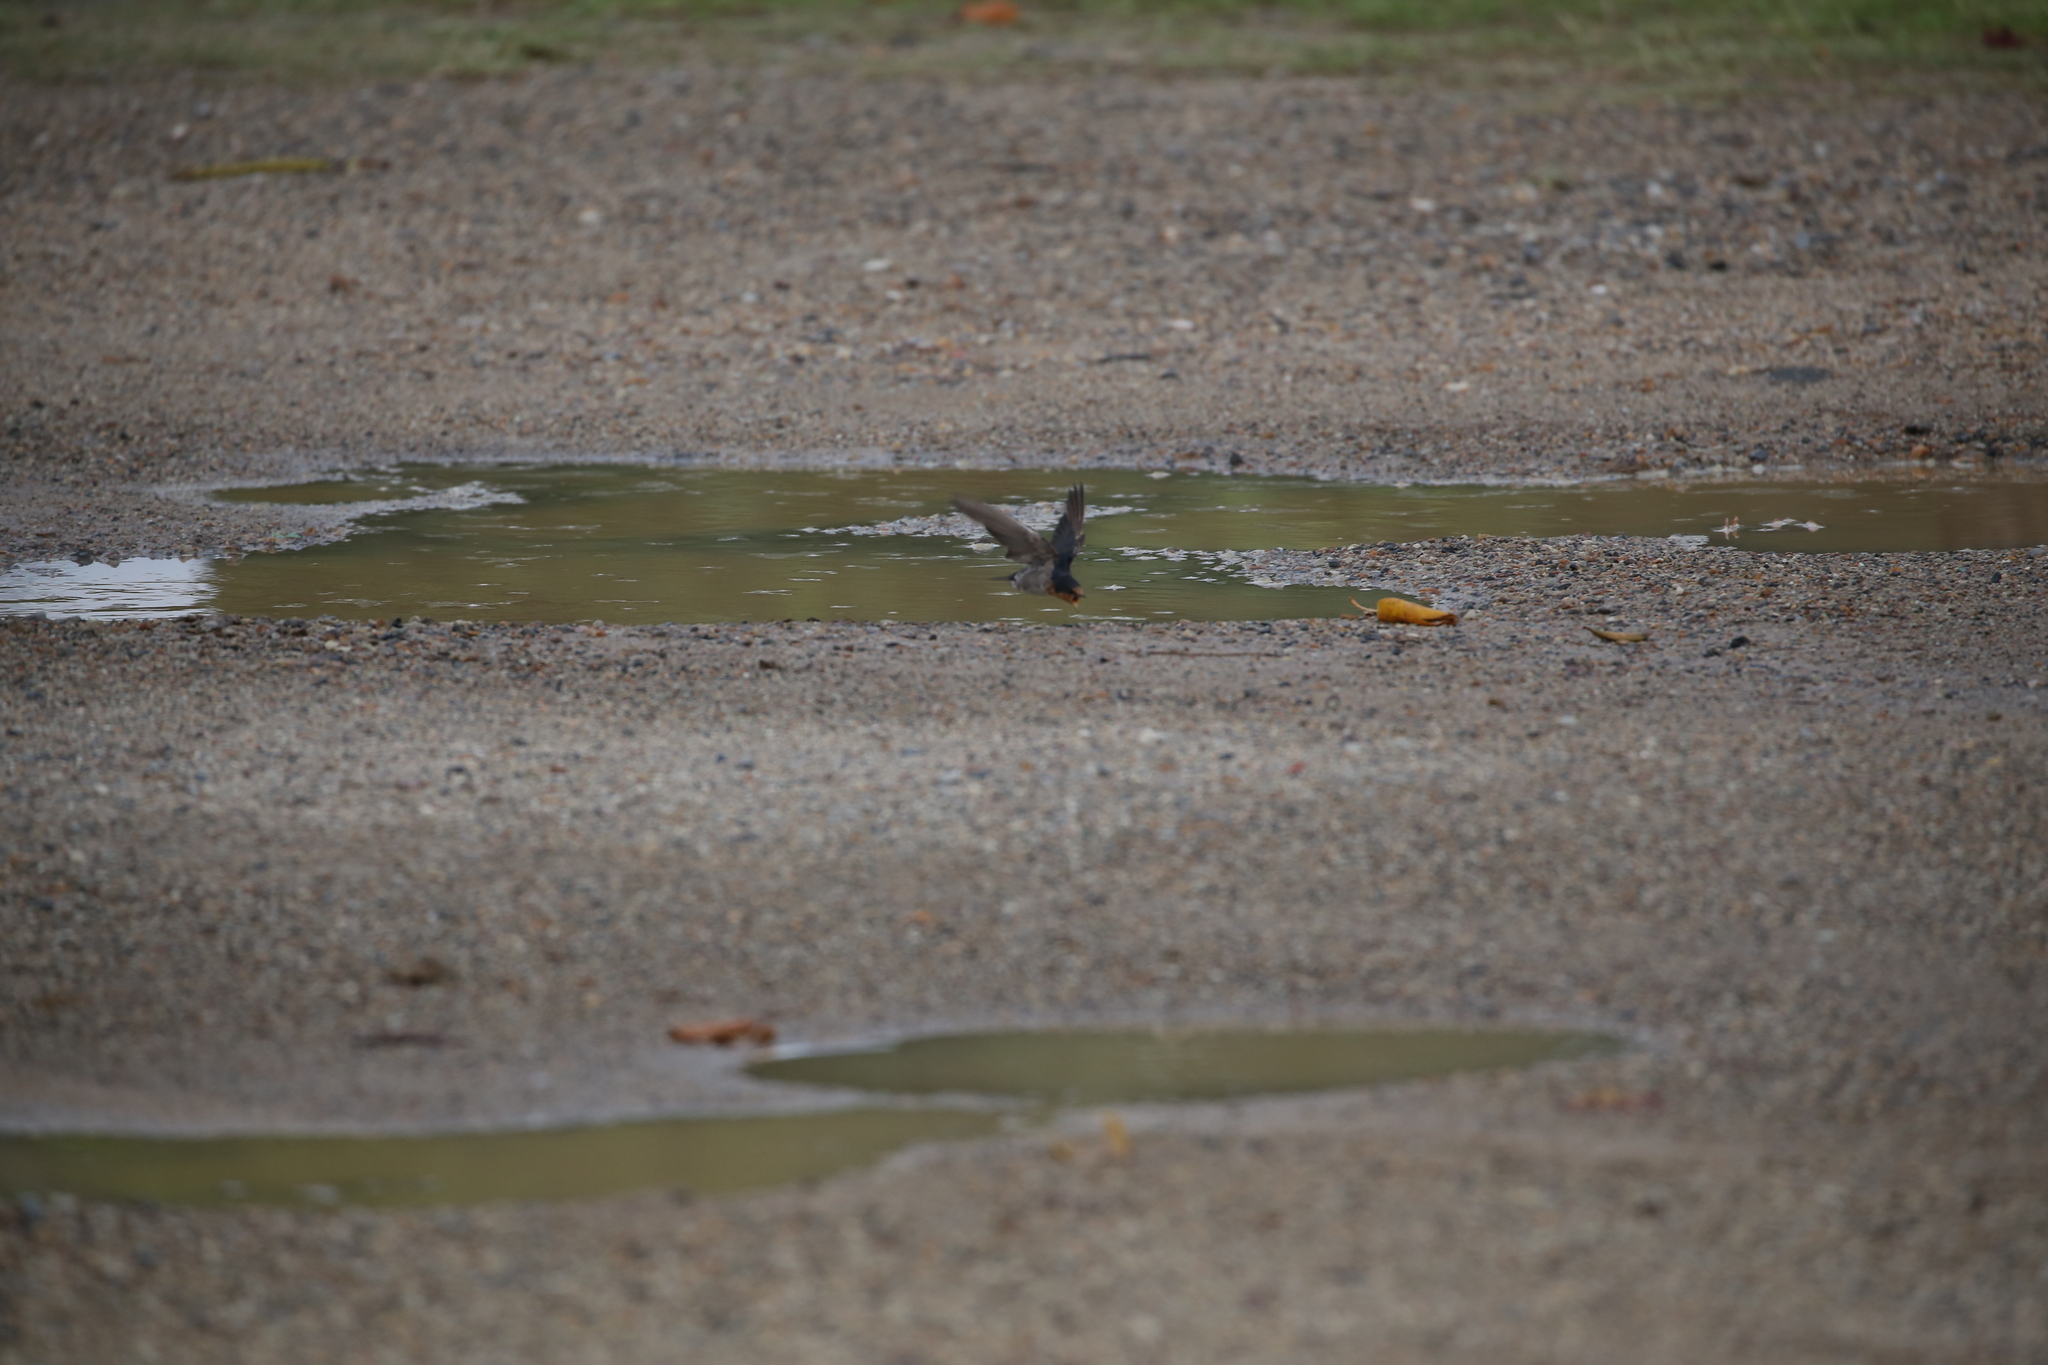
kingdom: Animalia
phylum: Chordata
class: Aves
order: Passeriformes
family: Hirundinidae
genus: Hirundo
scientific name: Hirundo neoxena
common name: Welcome swallow
